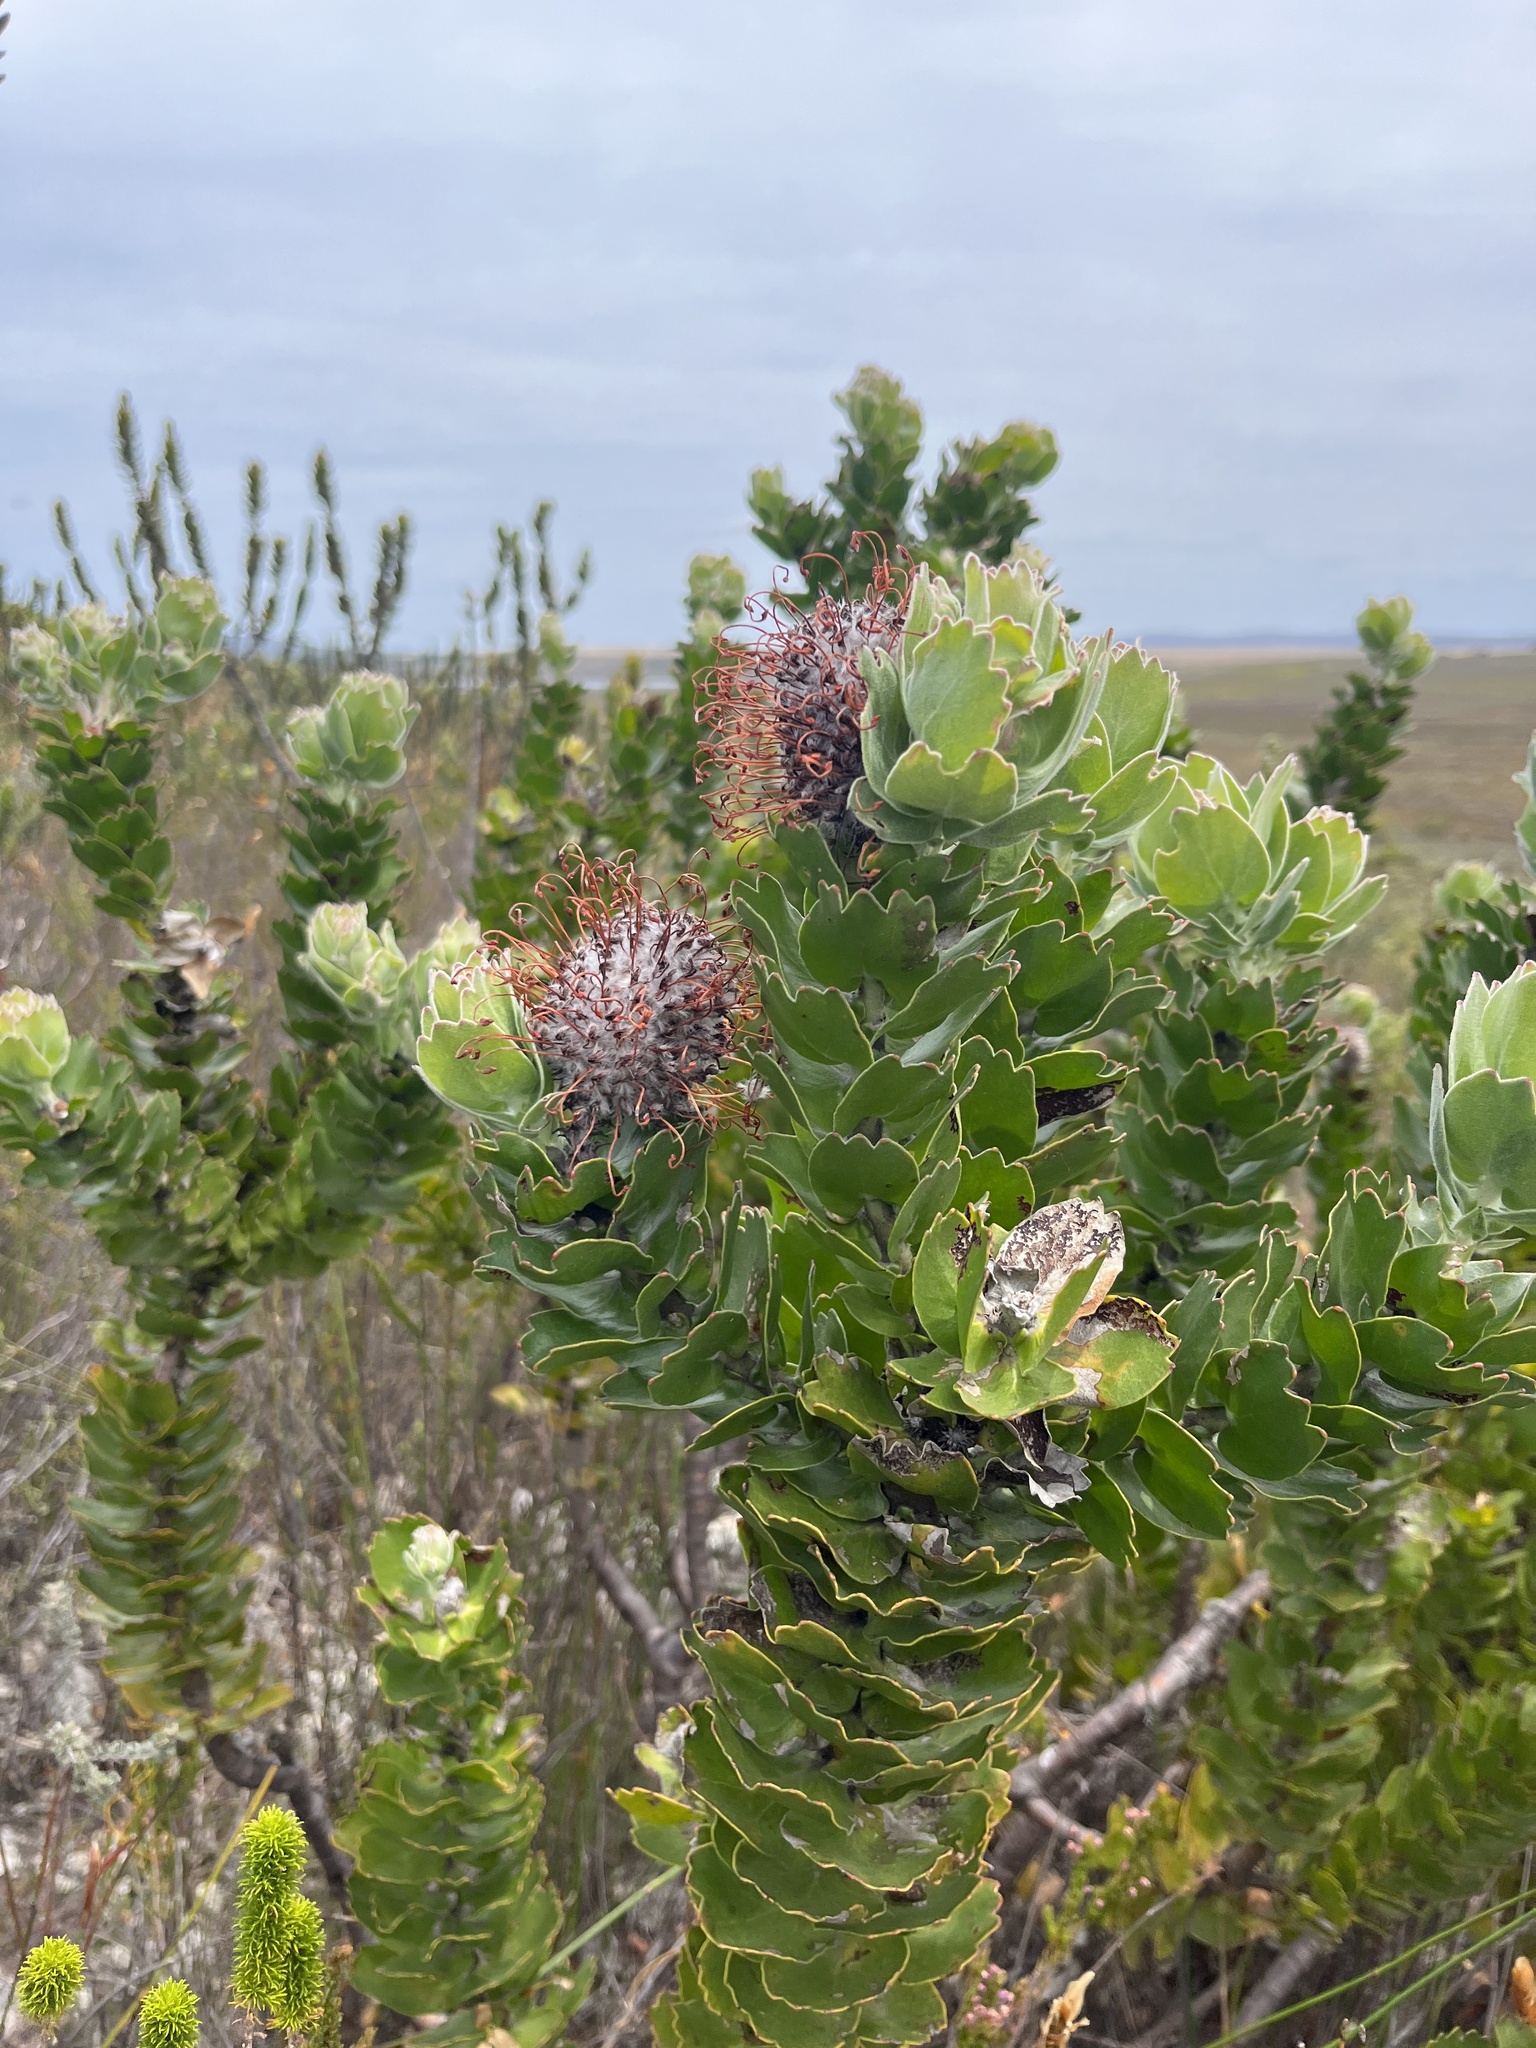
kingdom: Plantae
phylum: Tracheophyta
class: Magnoliopsida
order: Proteales
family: Proteaceae
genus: Leucospermum
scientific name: Leucospermum patersonii
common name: False tree pincushion
